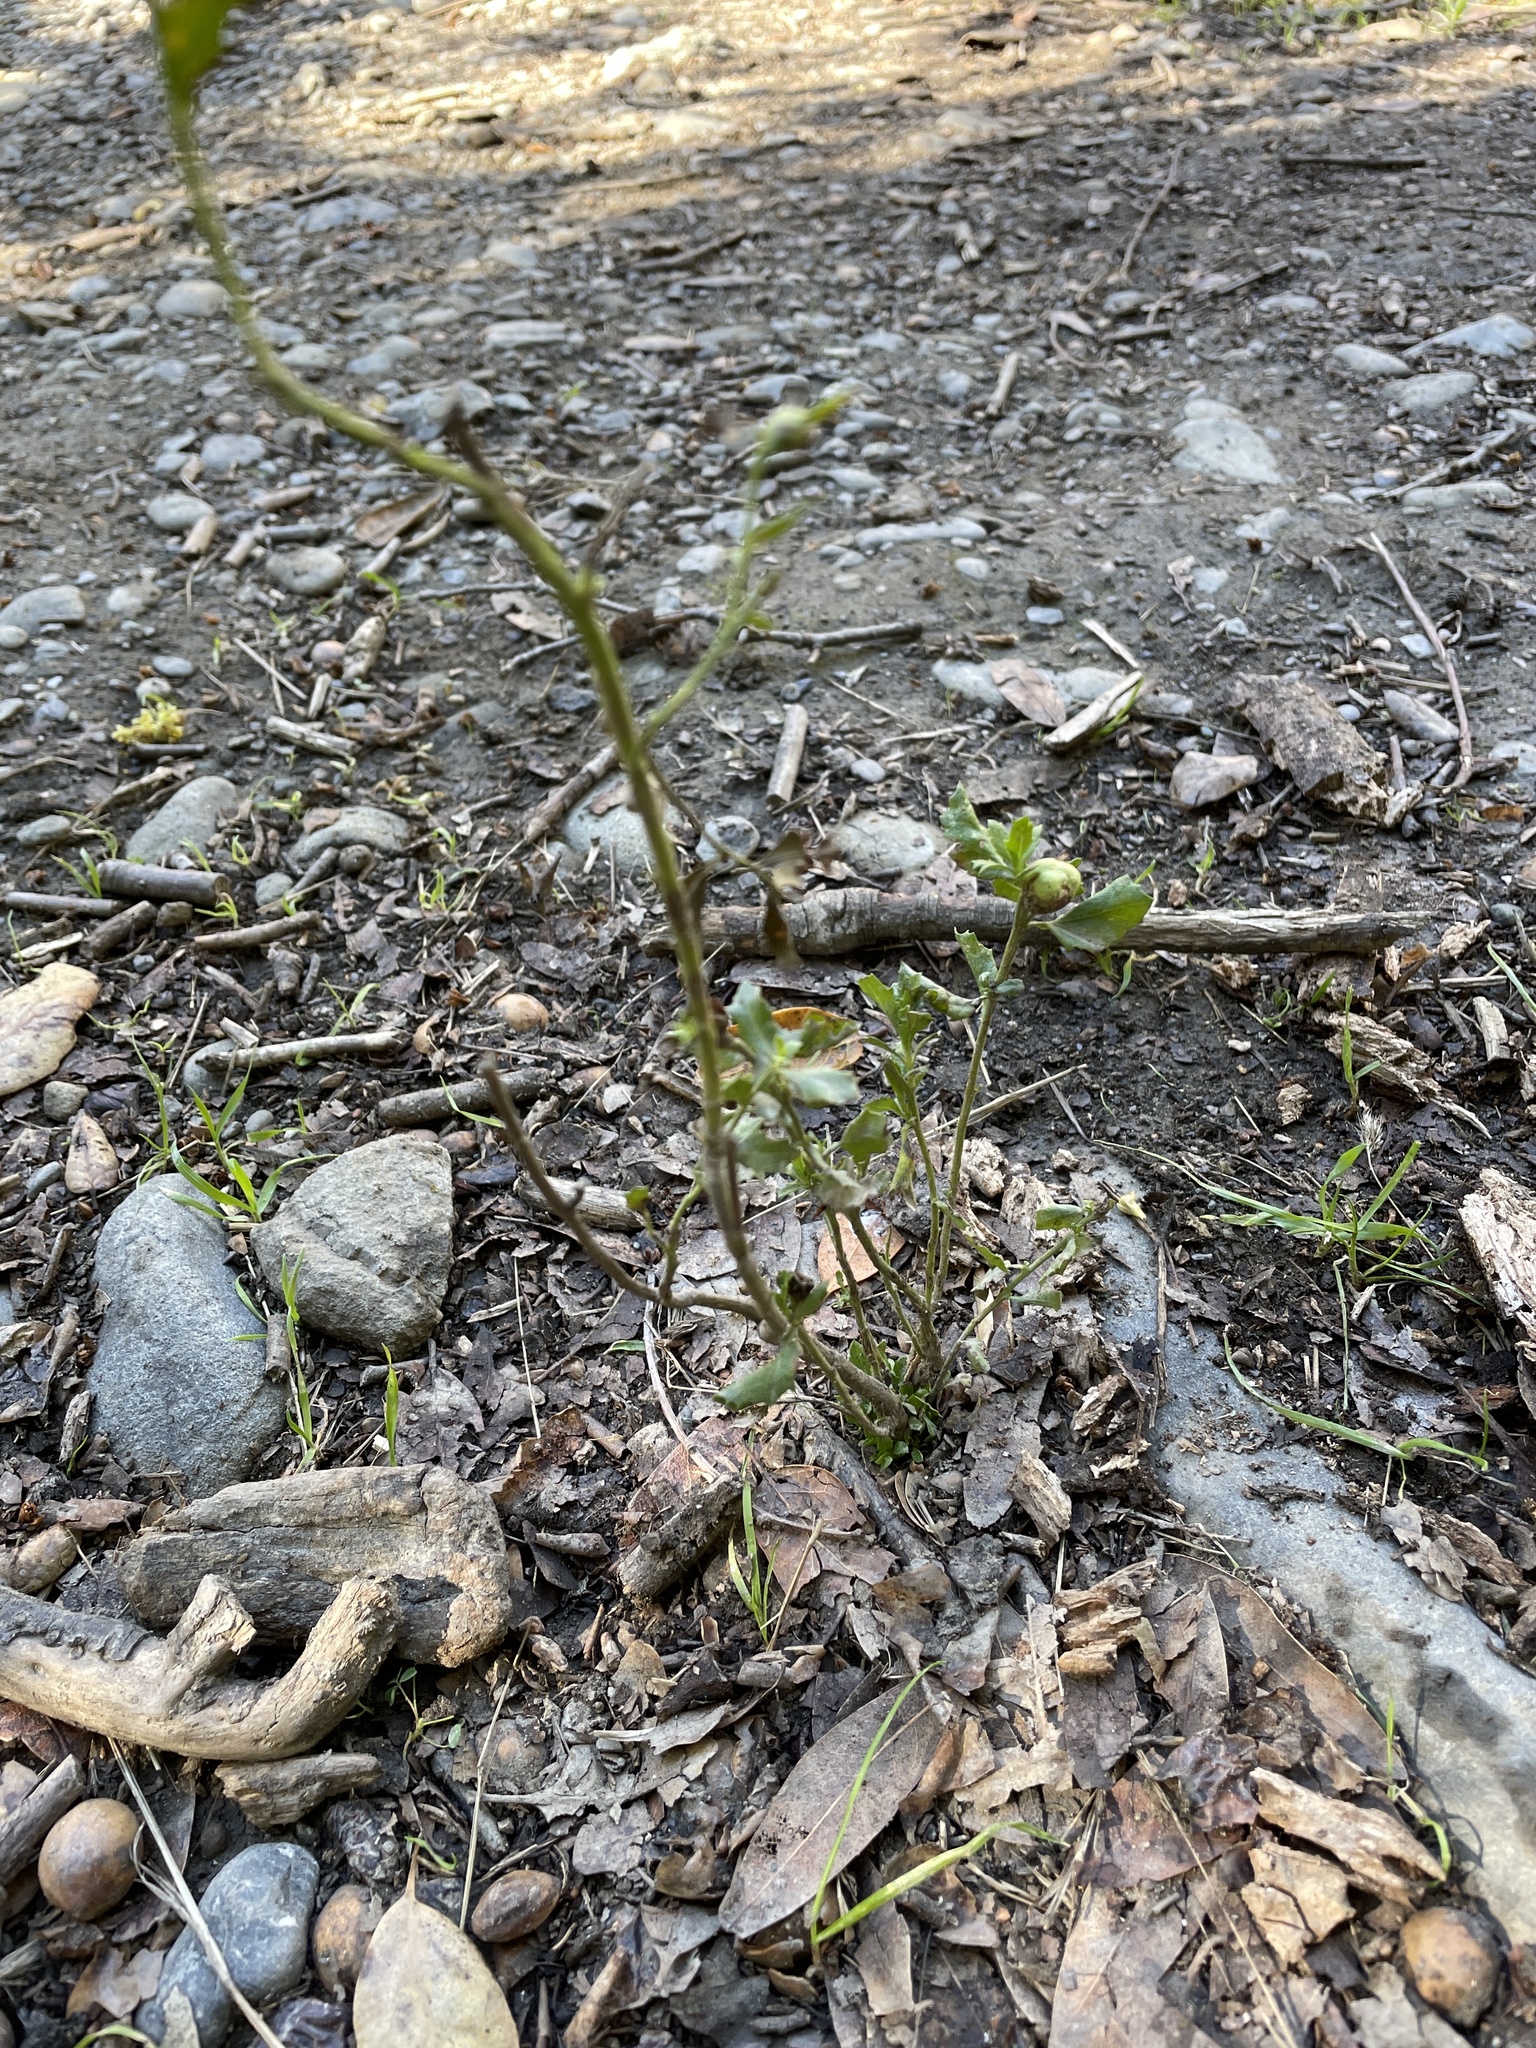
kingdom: Animalia
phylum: Arthropoda
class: Insecta
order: Diptera
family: Cecidomyiidae
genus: Rhopalomyia
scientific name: Rhopalomyia californica
